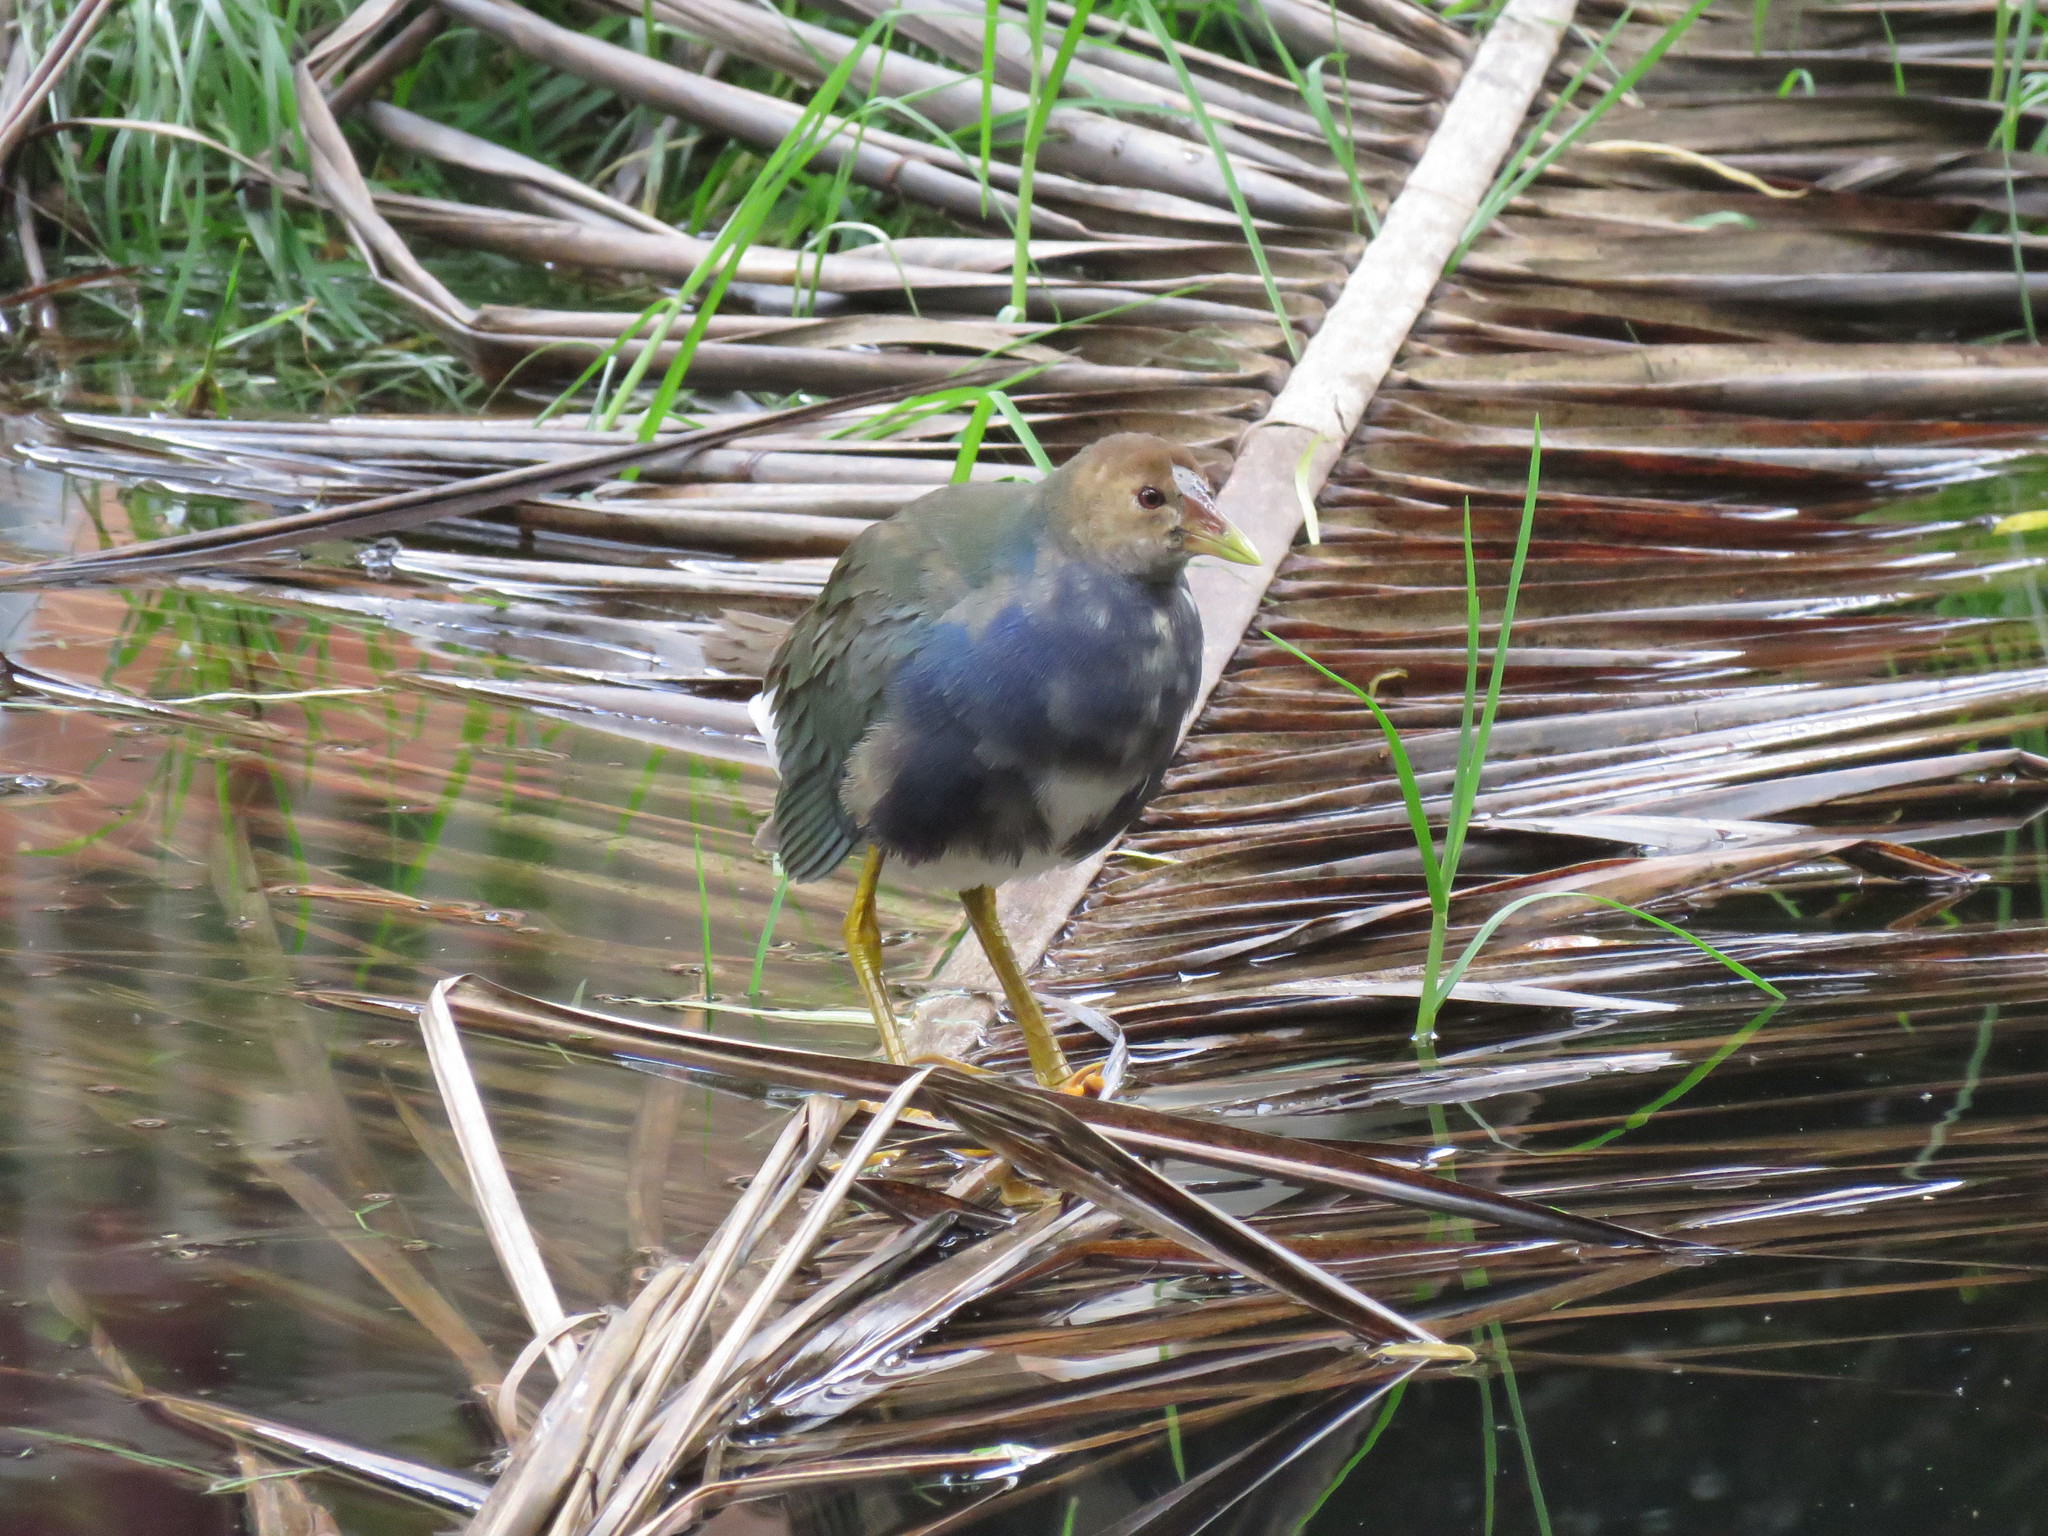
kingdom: Animalia
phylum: Chordata
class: Aves
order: Gruiformes
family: Rallidae
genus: Porphyrio
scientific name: Porphyrio martinica
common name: Purple gallinule
